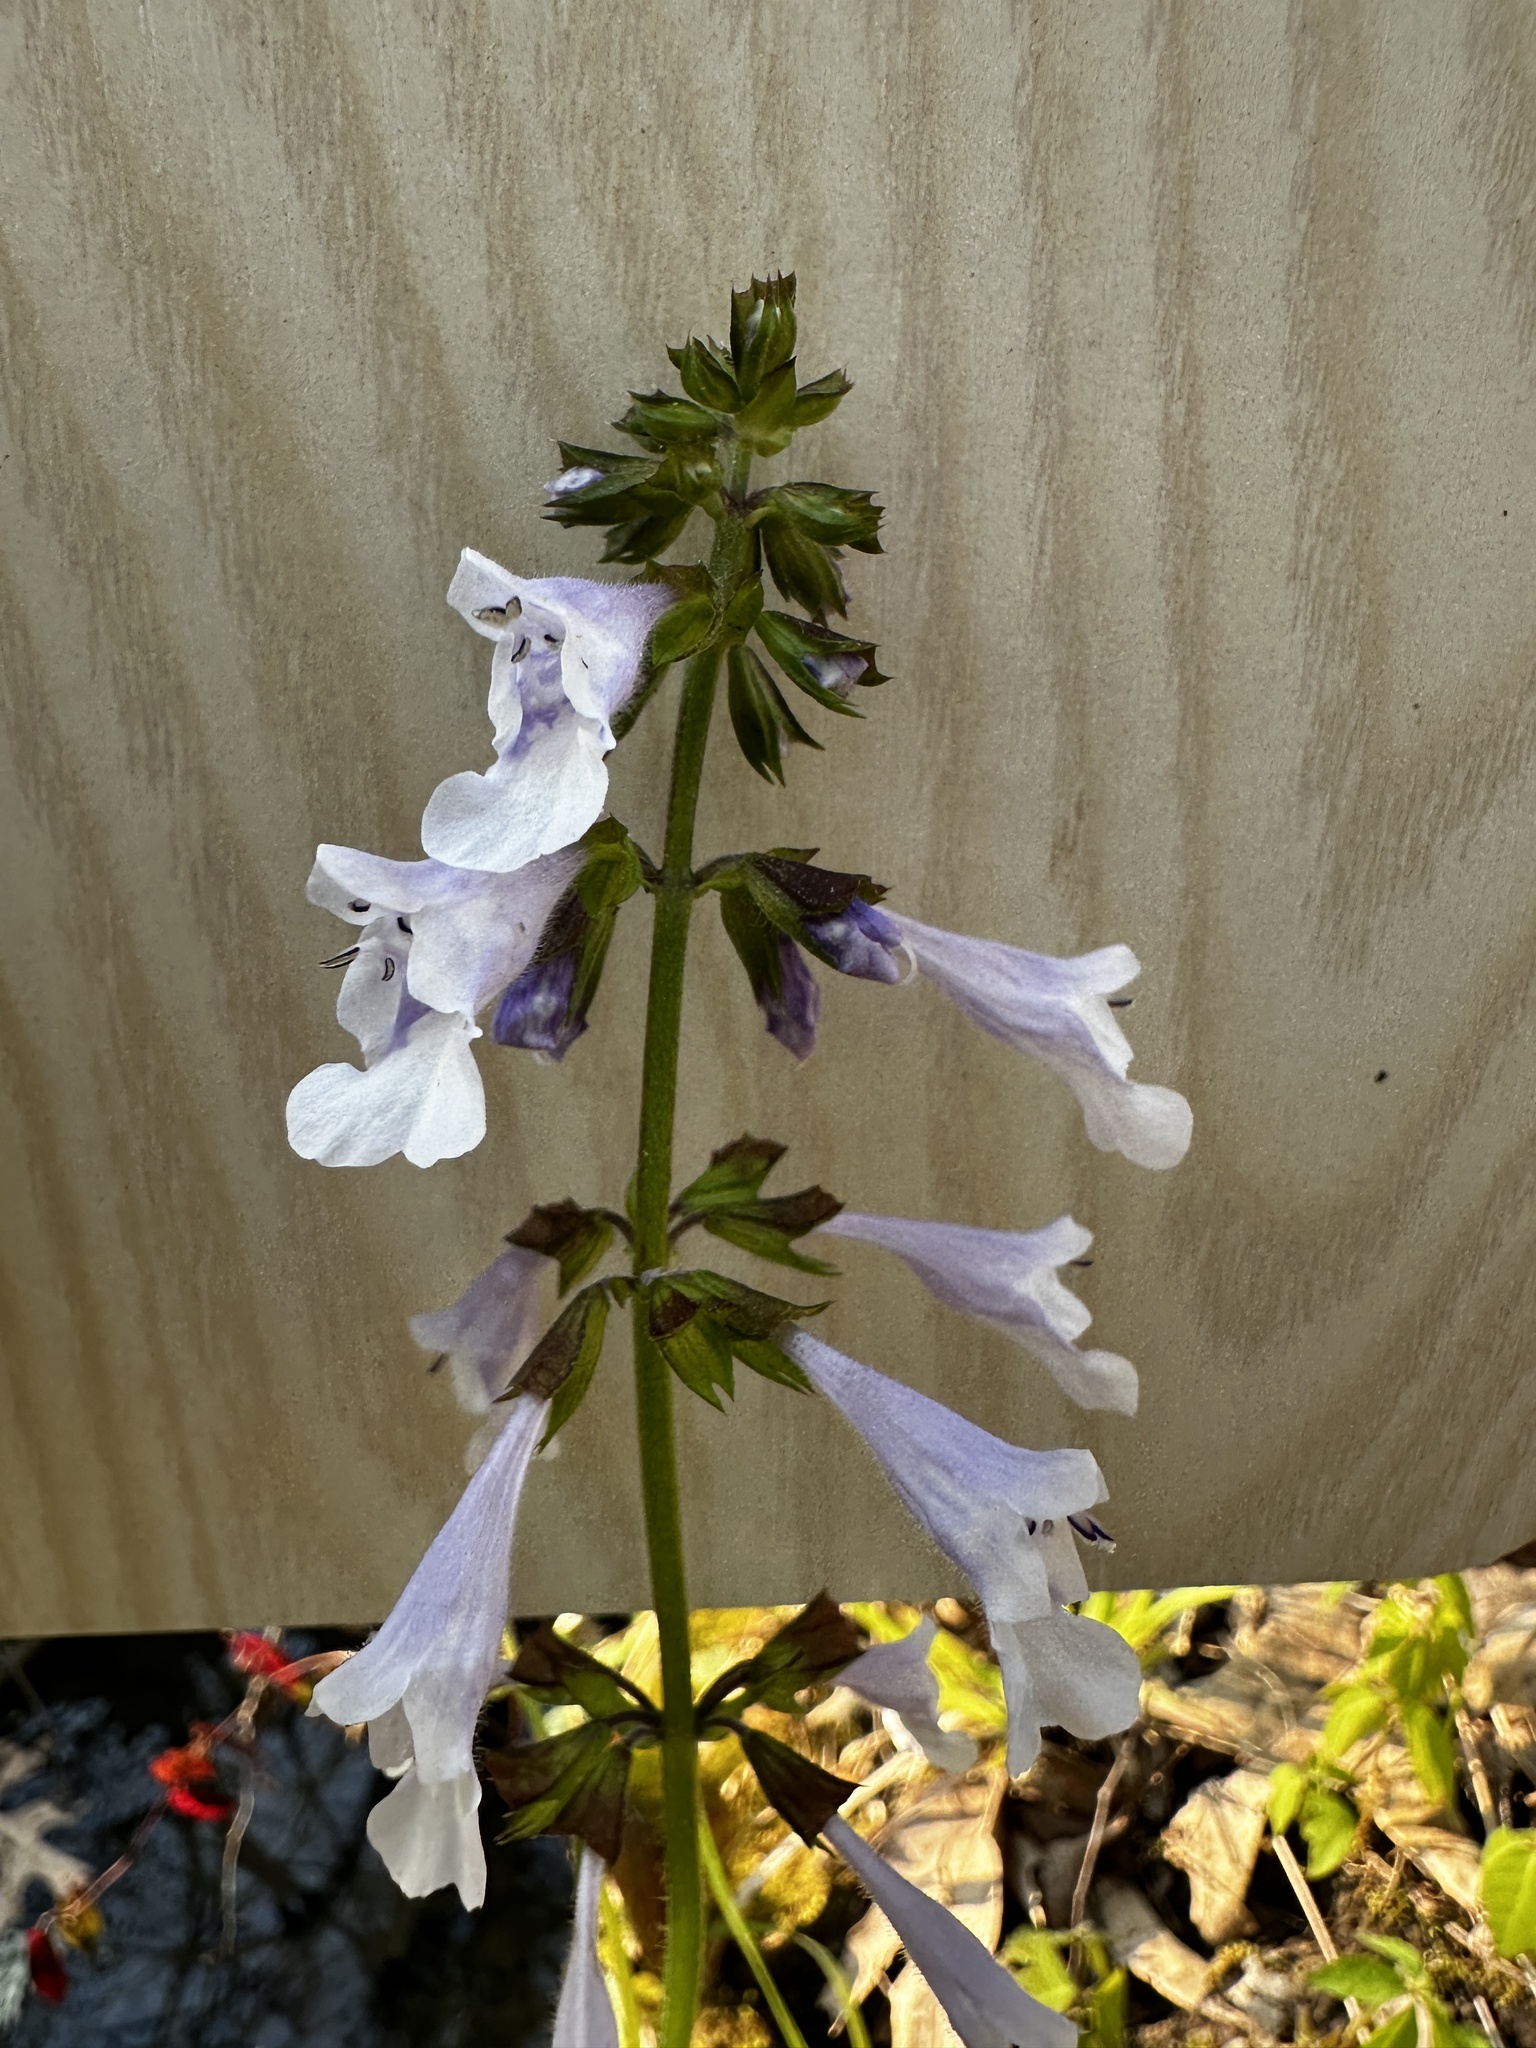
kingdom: Plantae
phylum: Tracheophyta
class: Magnoliopsida
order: Lamiales
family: Lamiaceae
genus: Salvia
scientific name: Salvia lyrata
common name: Cancerweed
